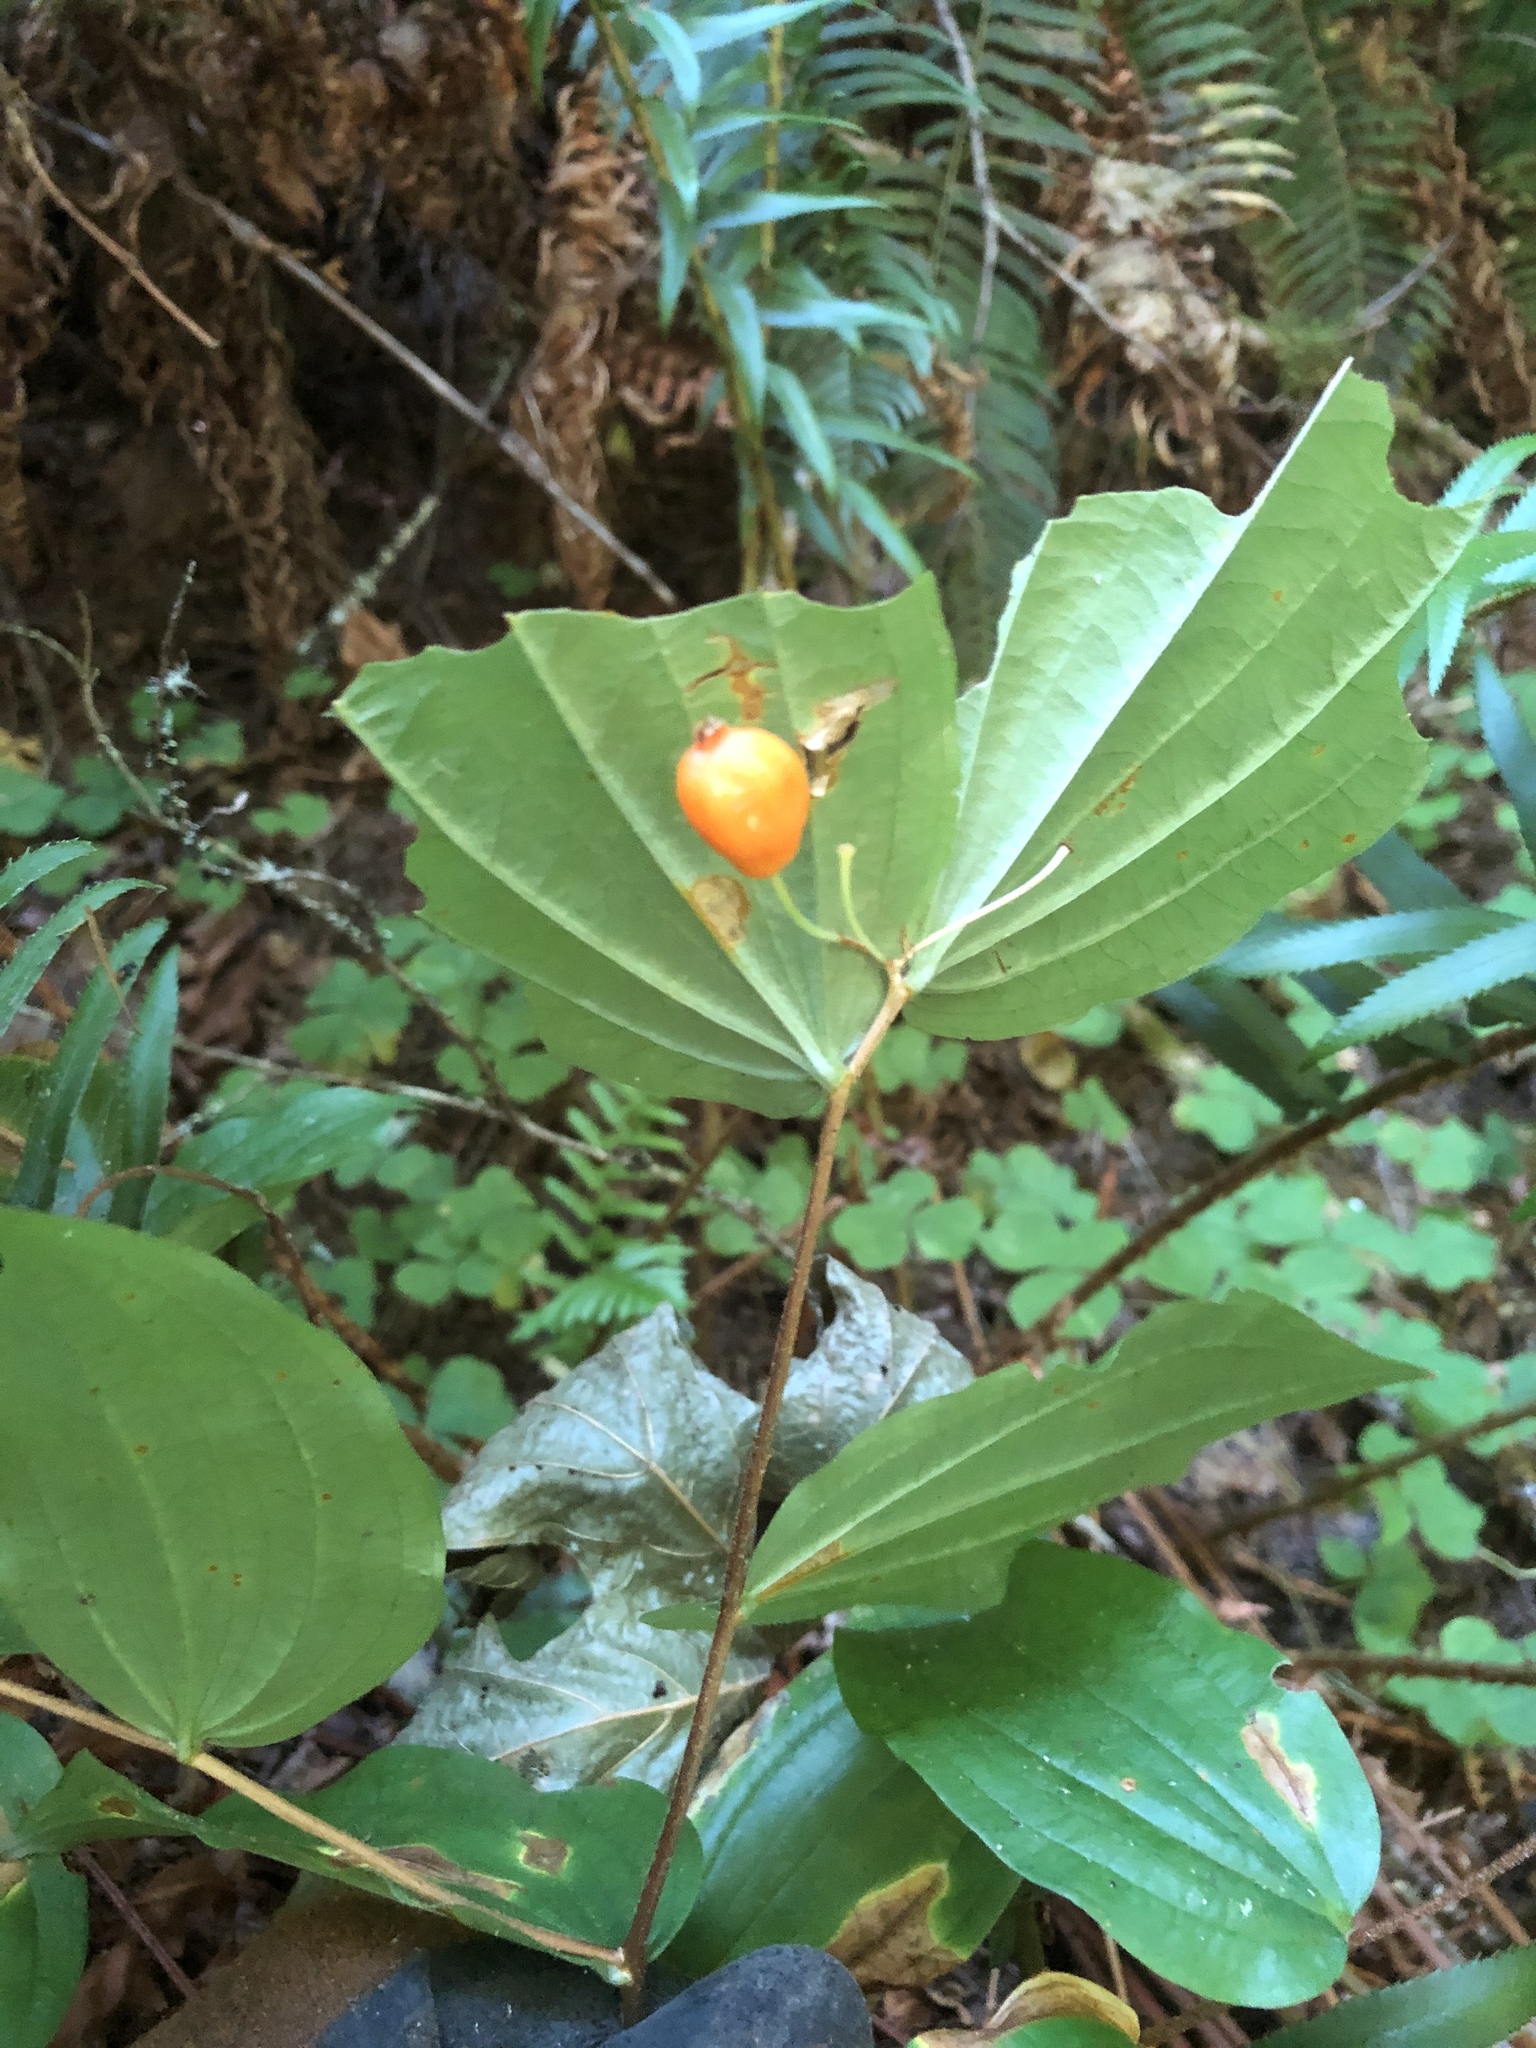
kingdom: Plantae
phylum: Tracheophyta
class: Liliopsida
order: Liliales
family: Liliaceae
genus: Prosartes
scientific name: Prosartes smithii
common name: Fairy-lantern
